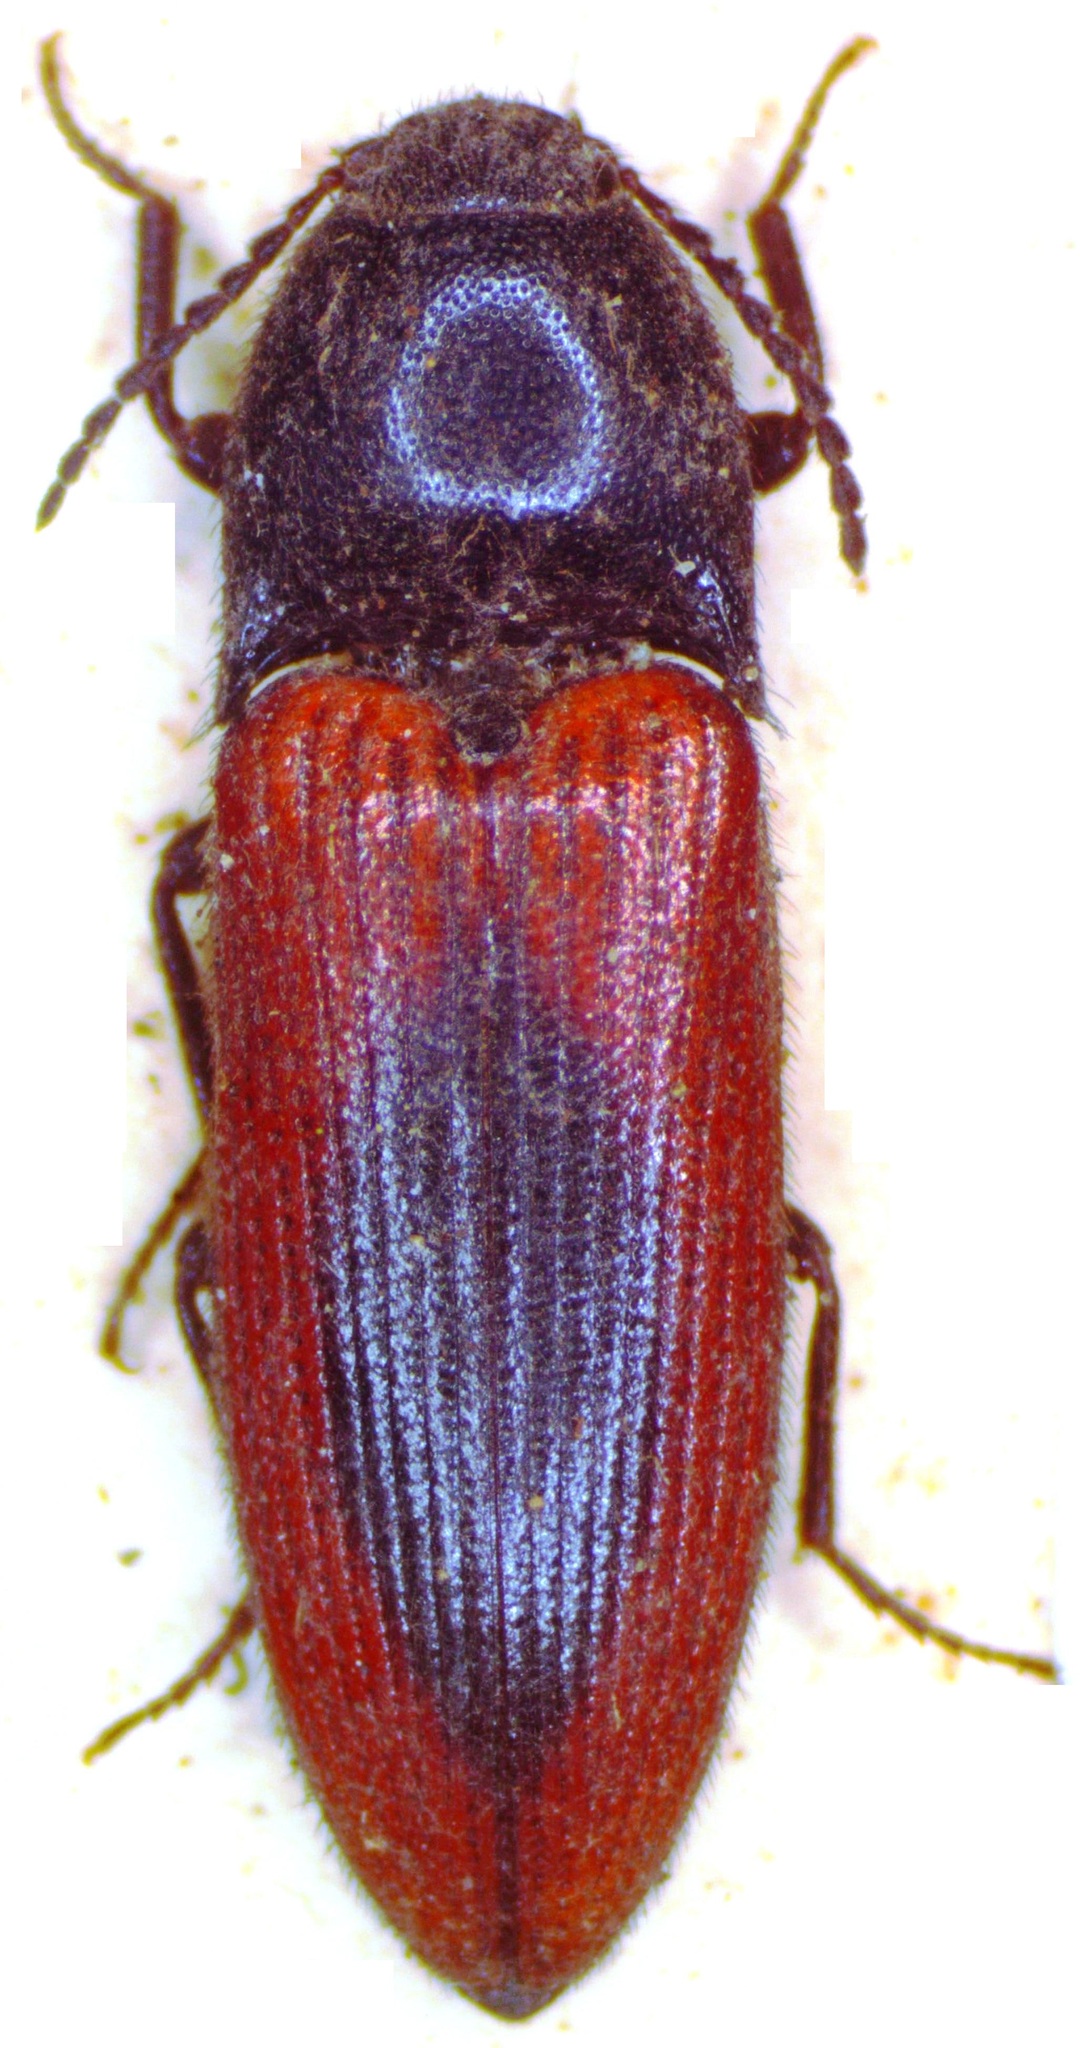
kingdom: Animalia
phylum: Arthropoda
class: Insecta
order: Coleoptera
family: Elateridae
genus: Ampedus
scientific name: Ampedus sanguinolentus
